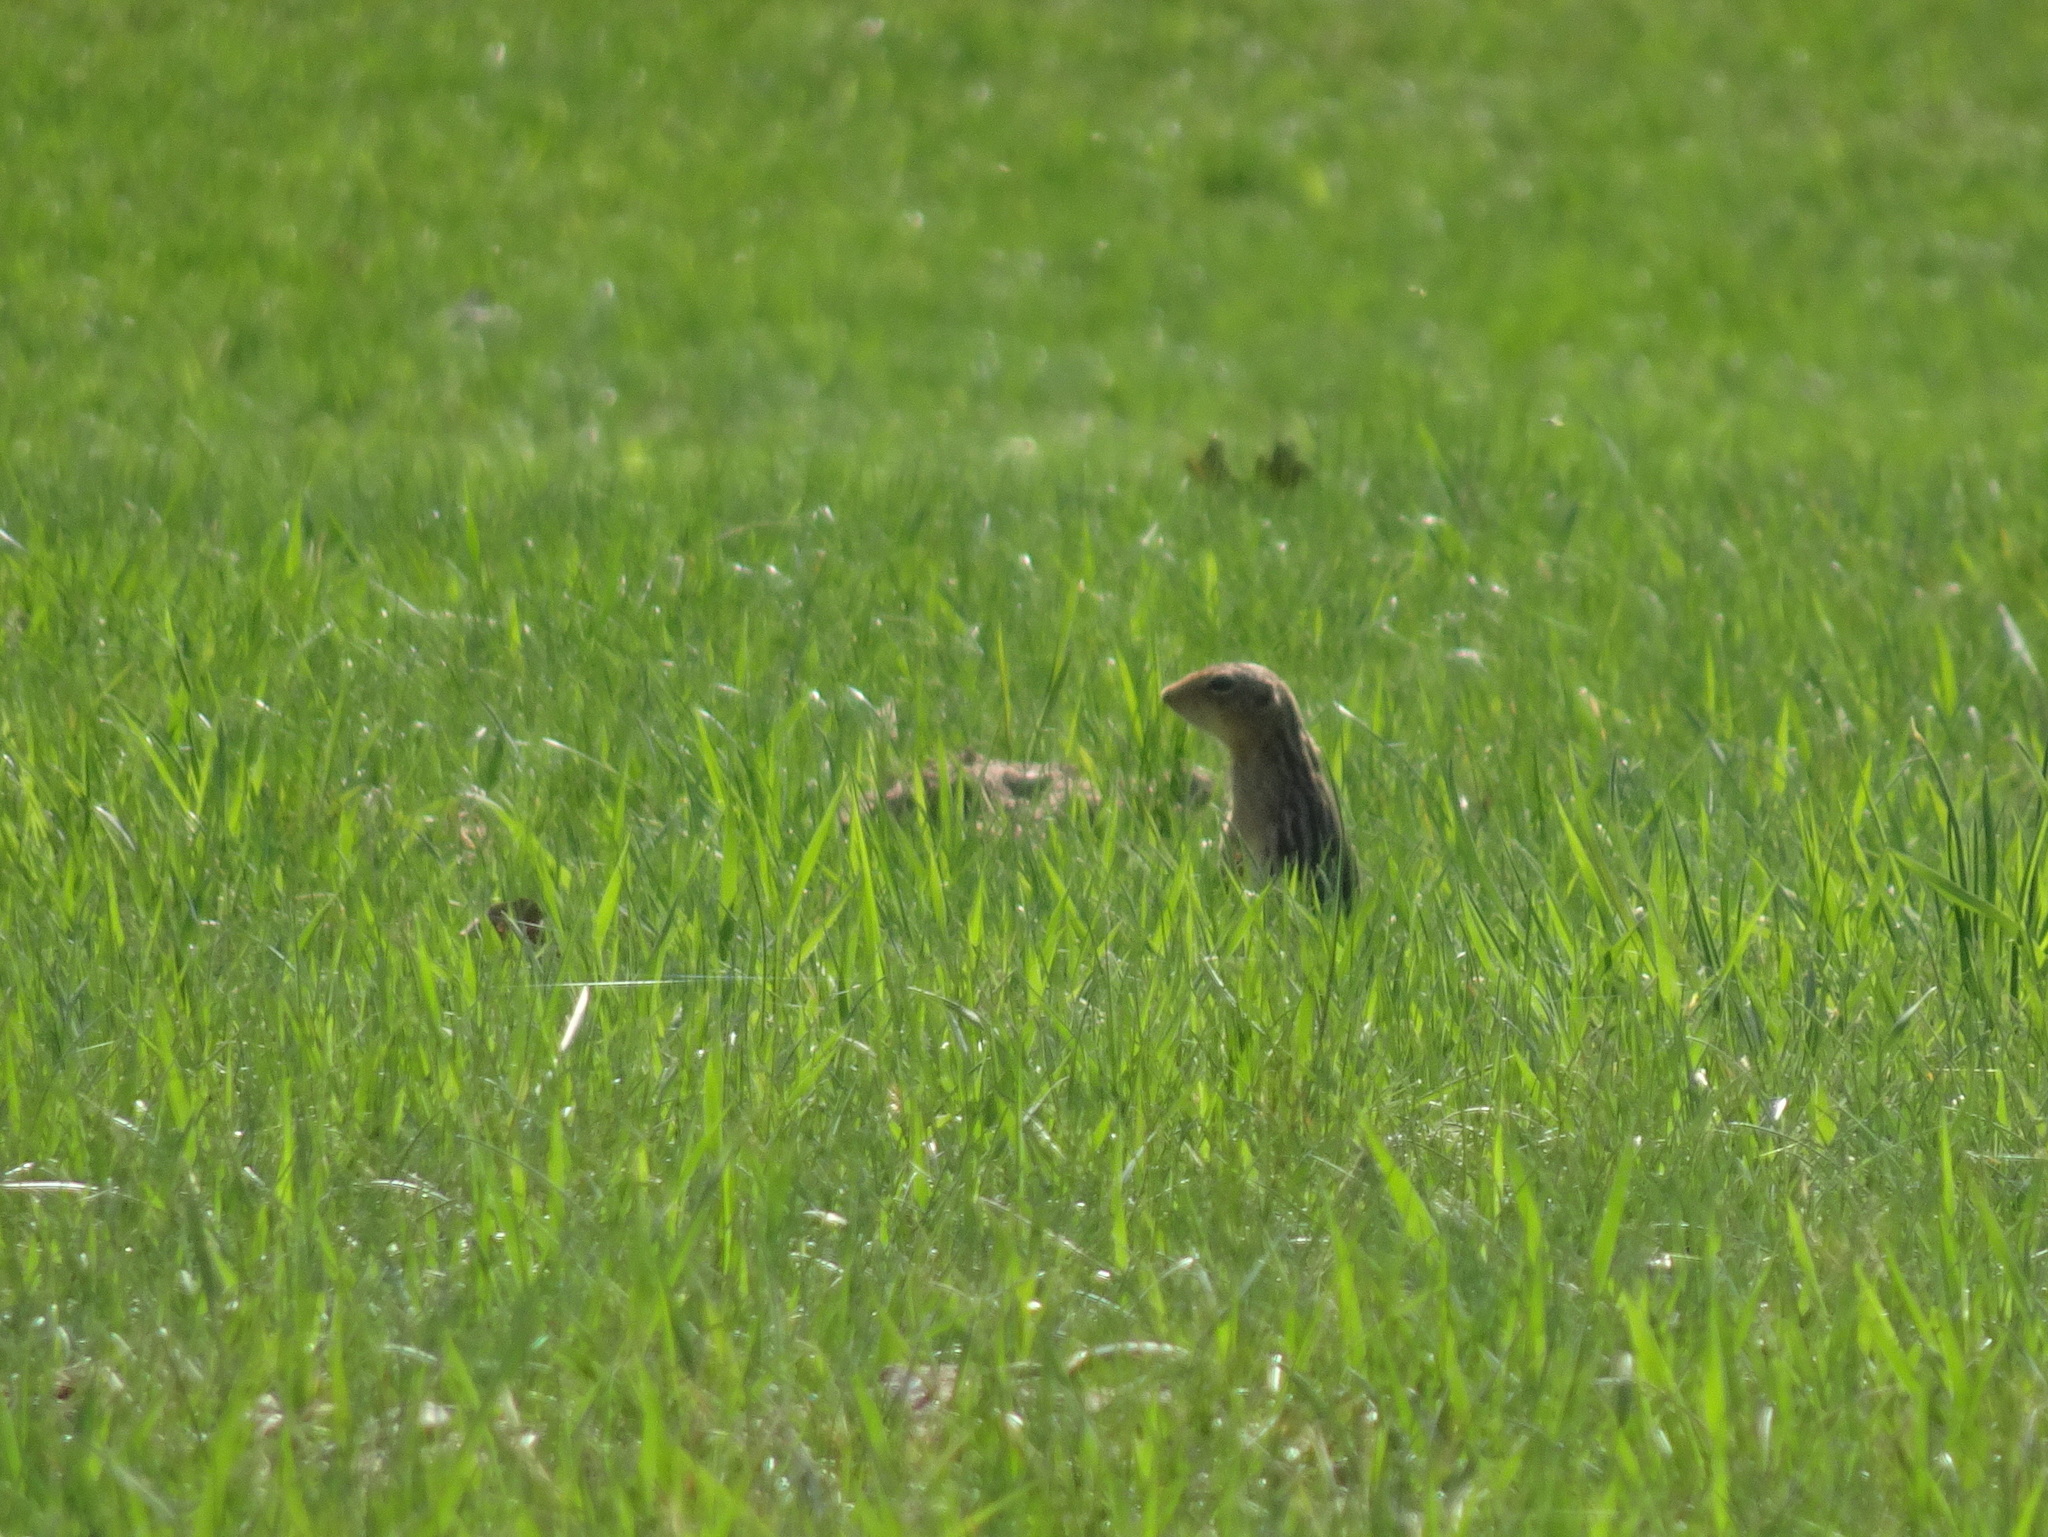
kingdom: Animalia
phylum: Chordata
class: Mammalia
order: Rodentia
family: Sciuridae
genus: Ictidomys
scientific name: Ictidomys tridecemlineatus
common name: Thirteen-lined ground squirrel
